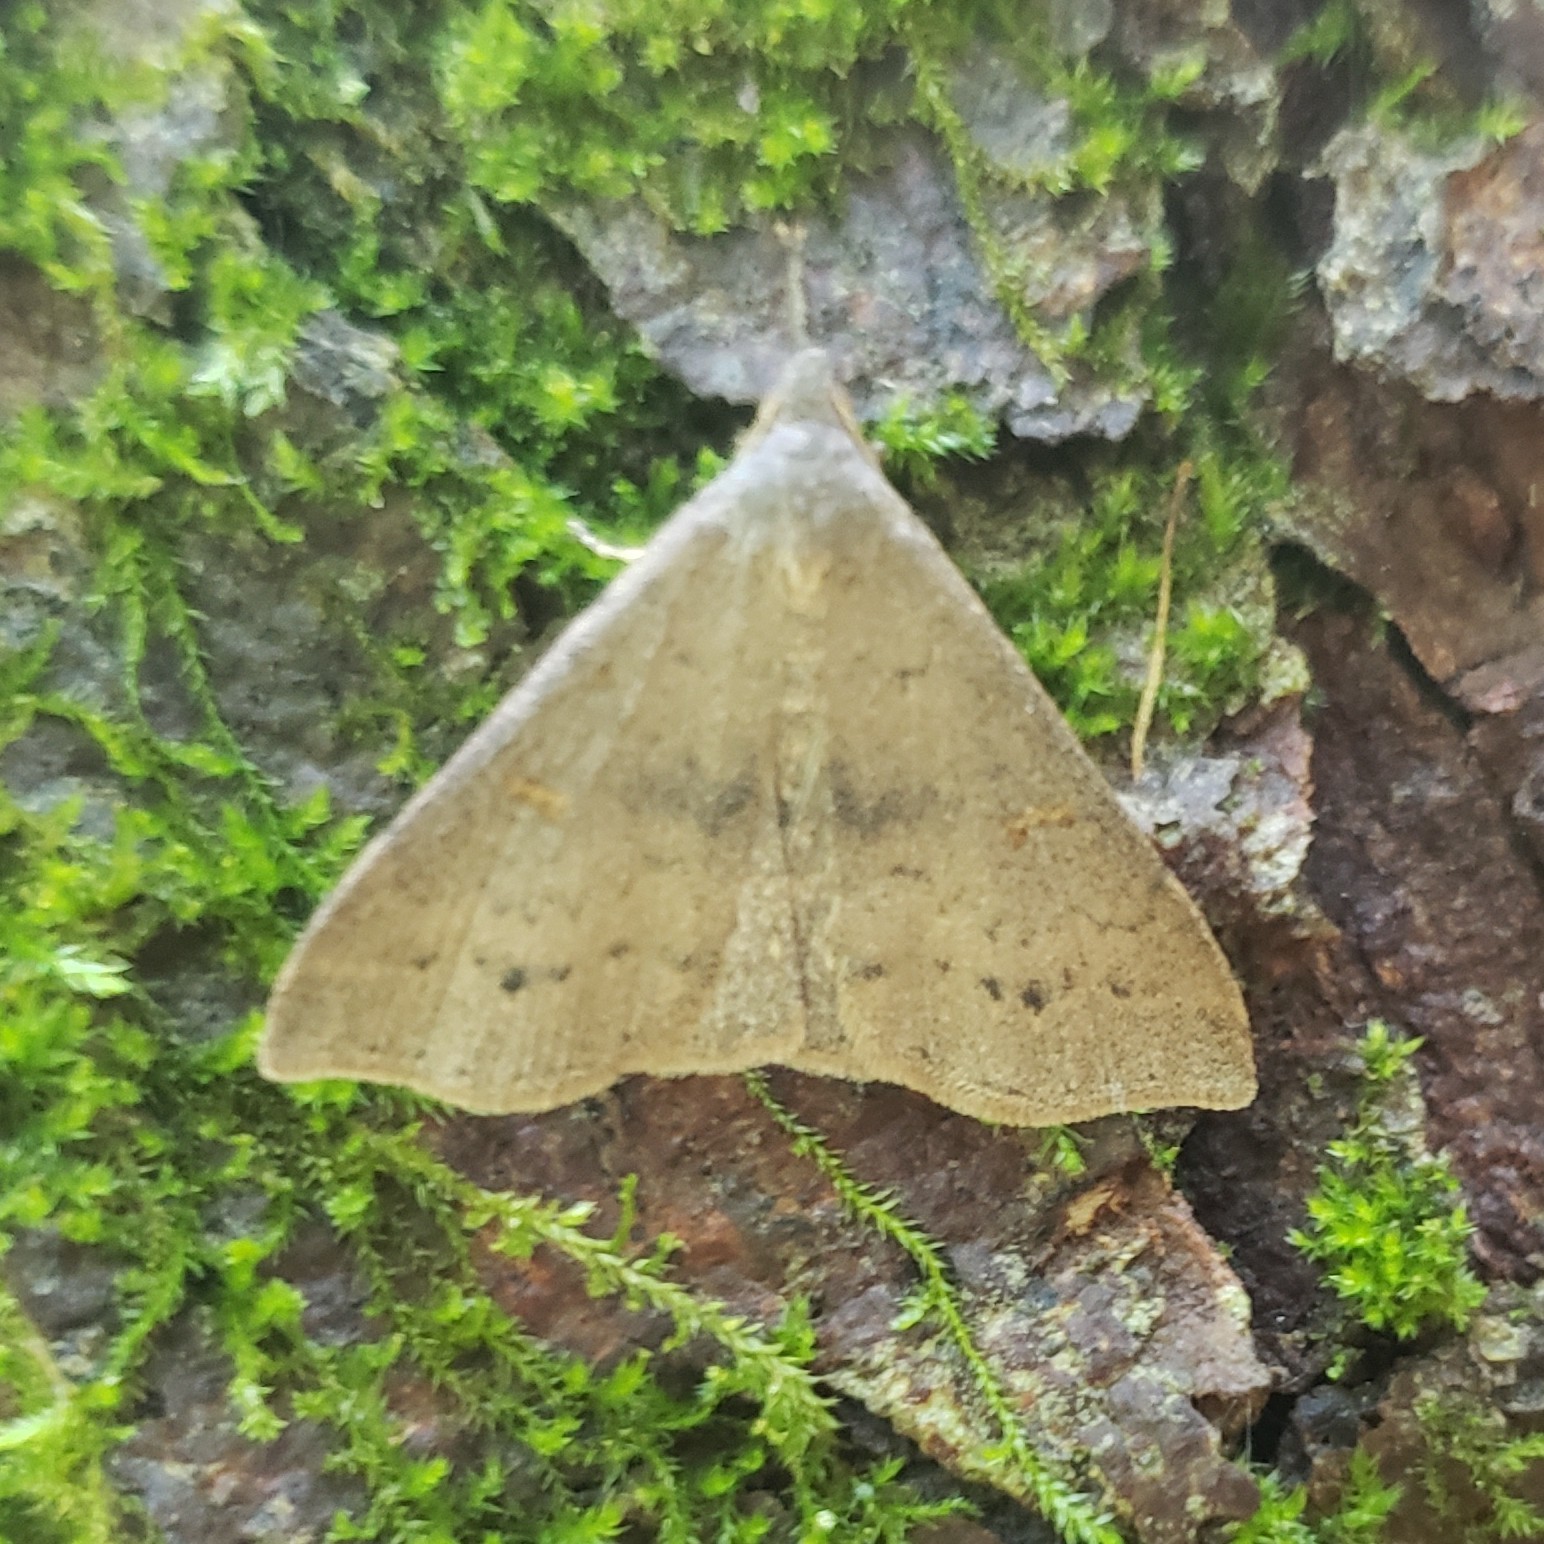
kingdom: Animalia
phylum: Arthropoda
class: Insecta
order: Lepidoptera
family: Erebidae
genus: Renia
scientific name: Renia adspergillus
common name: Speckled renia moth
